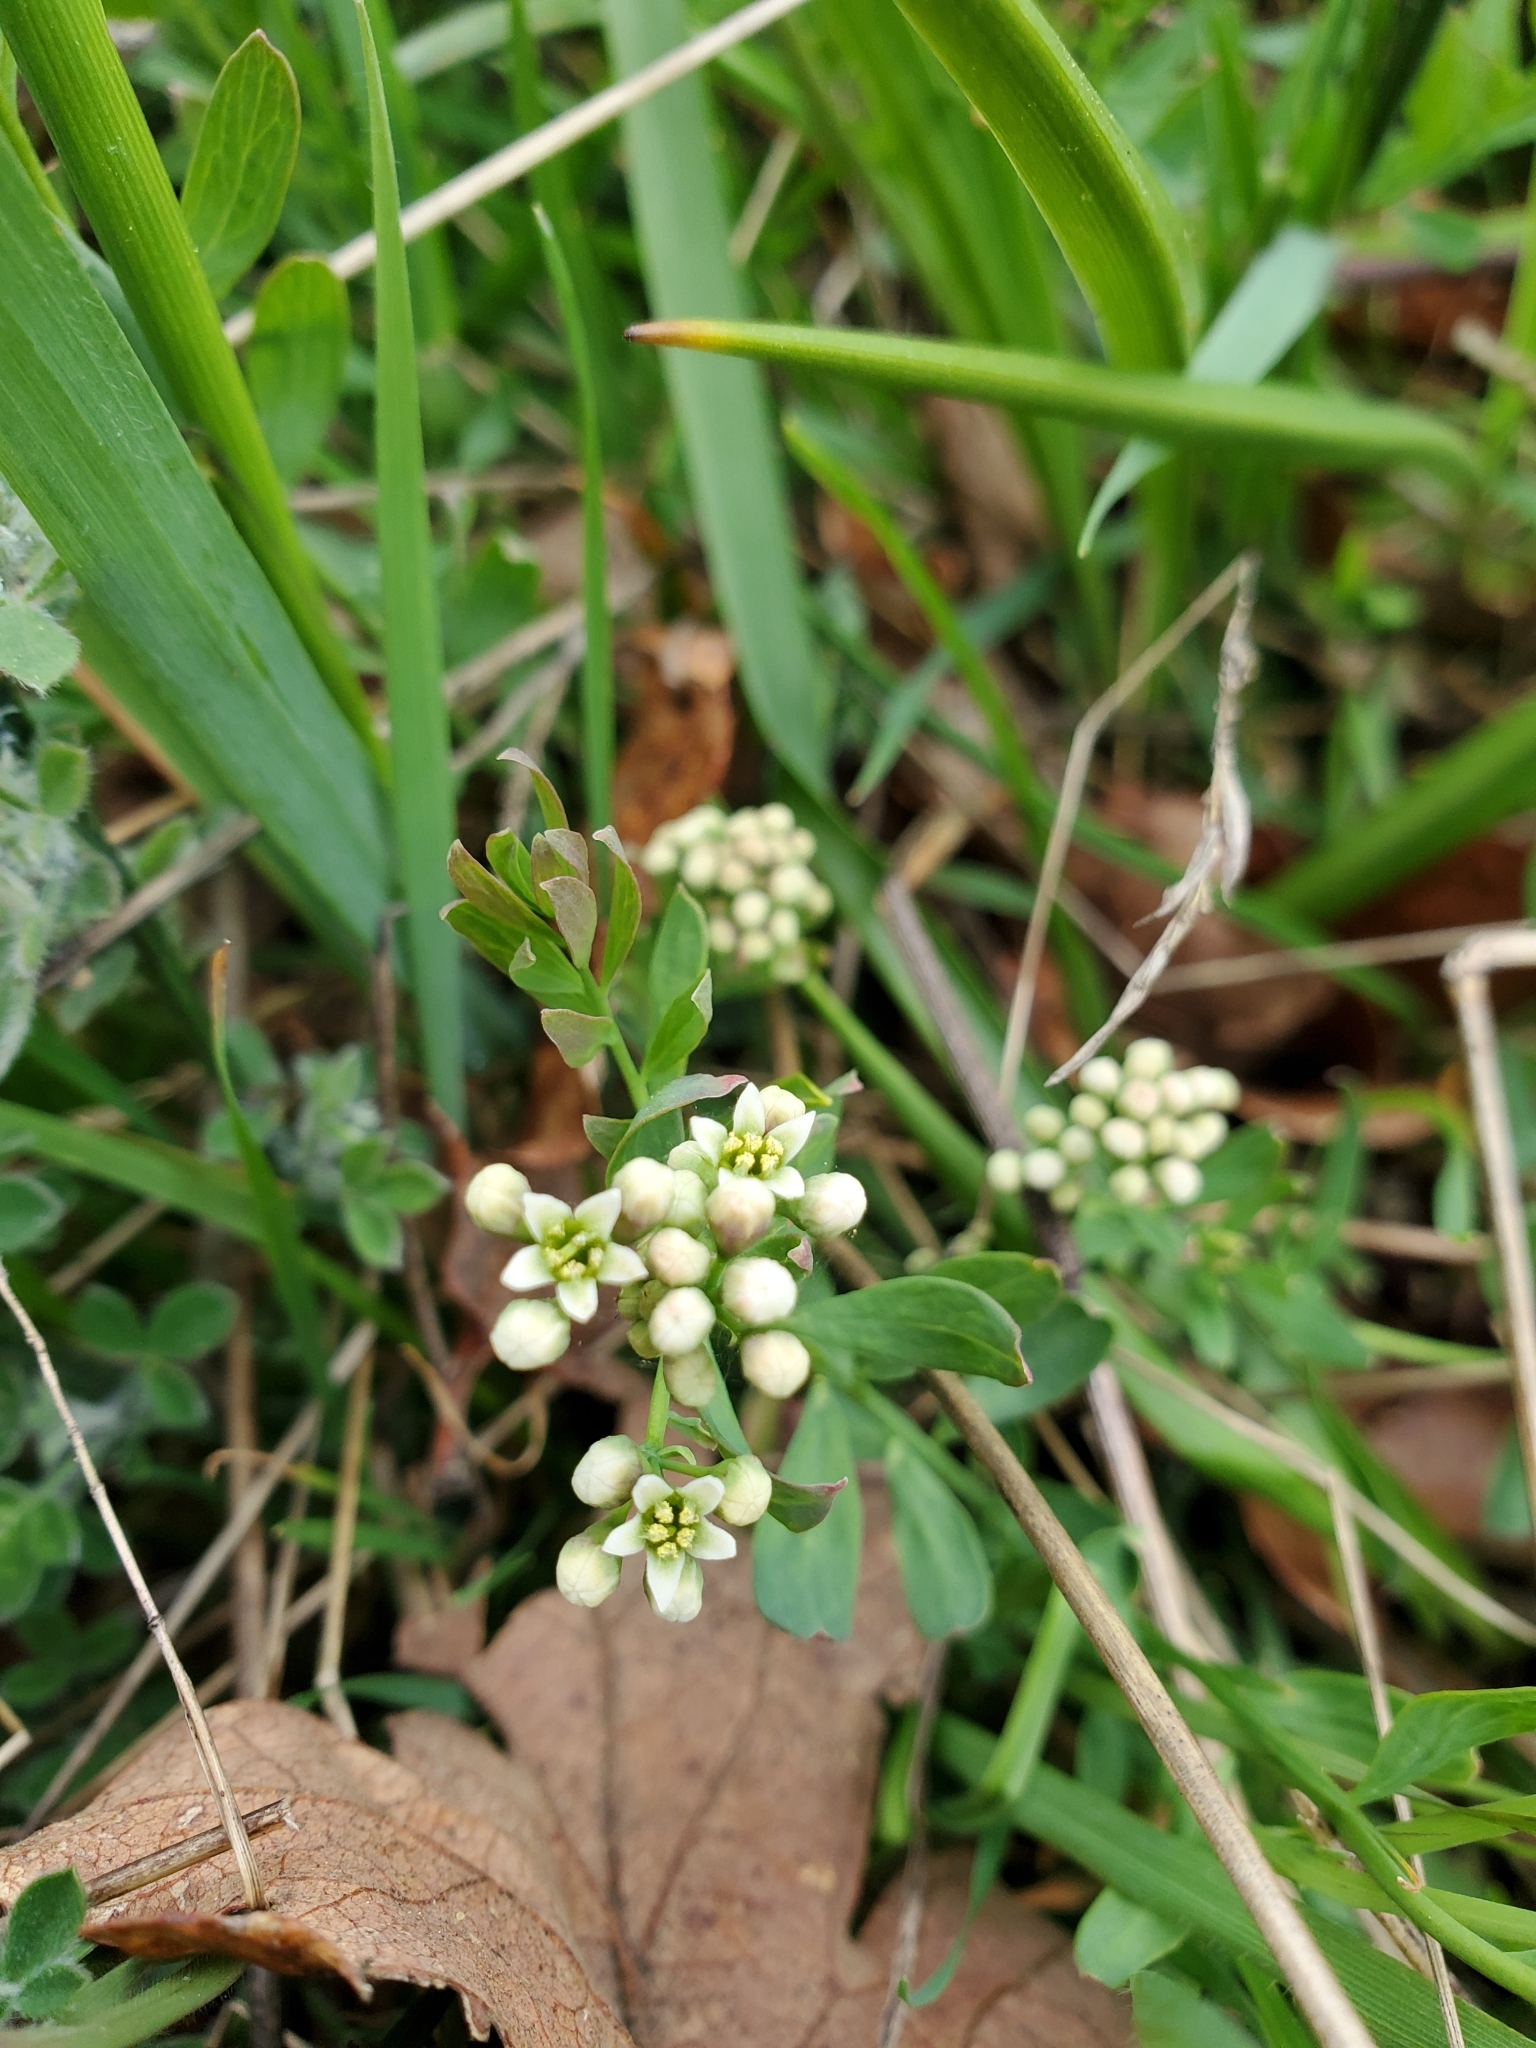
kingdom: Plantae
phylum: Tracheophyta
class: Magnoliopsida
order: Santalales
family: Comandraceae
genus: Comandra
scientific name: Comandra umbellata
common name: Bastard toadflax
